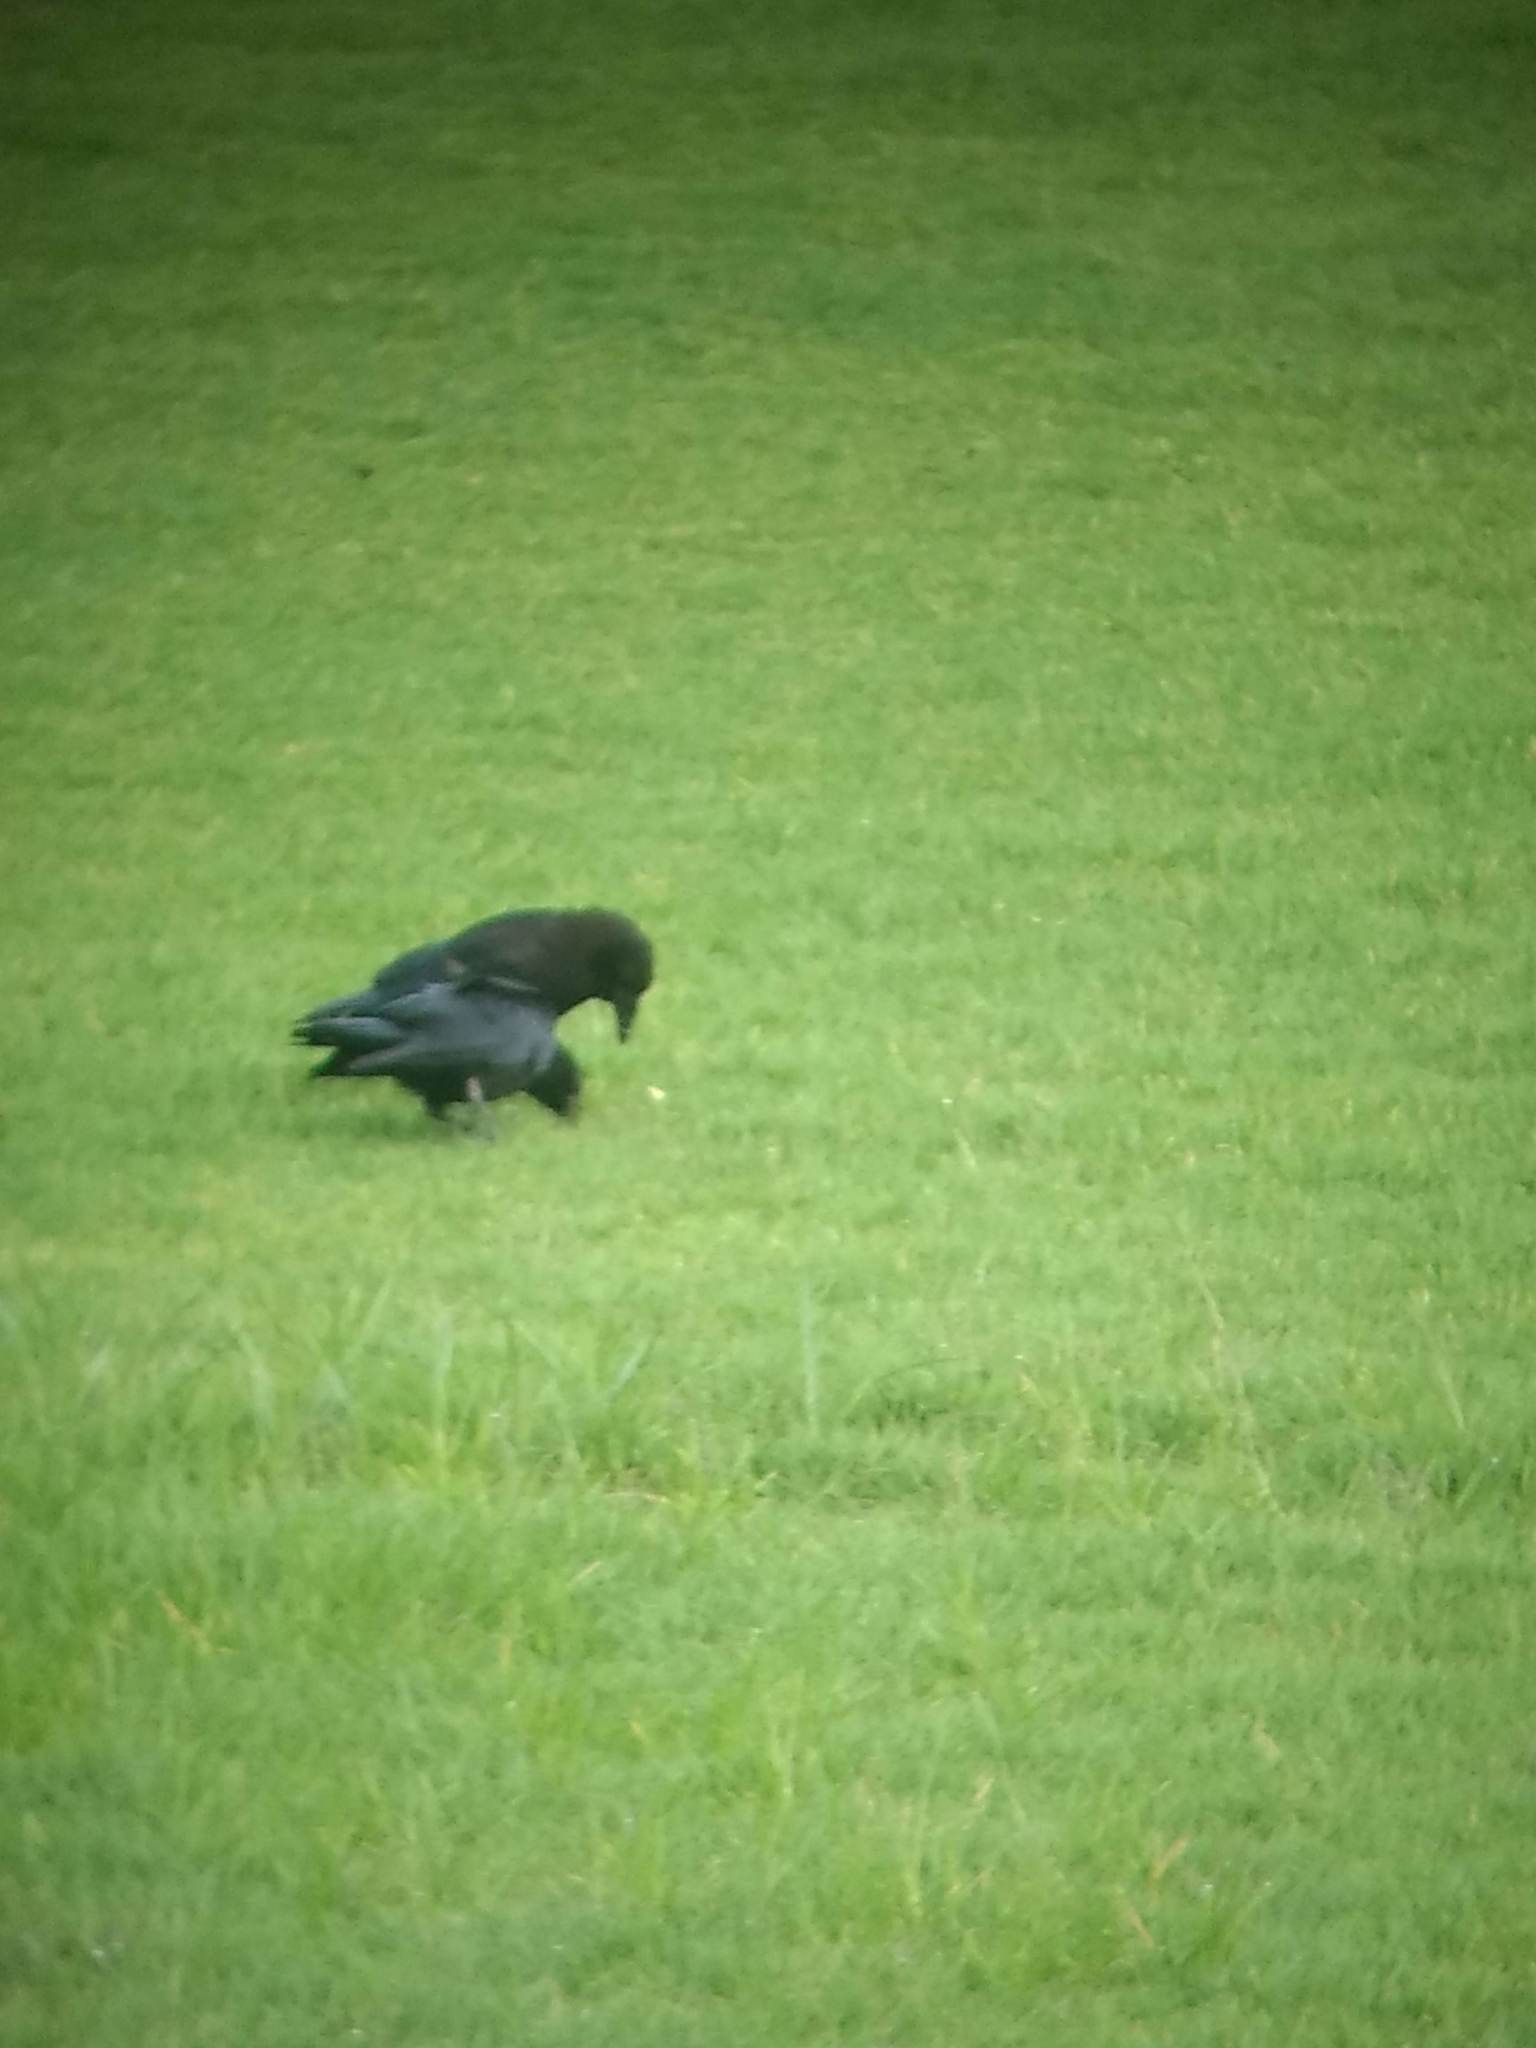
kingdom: Animalia
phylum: Chordata
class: Aves
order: Passeriformes
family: Corvidae
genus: Corvus
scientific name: Corvus brachyrhynchos
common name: American crow
